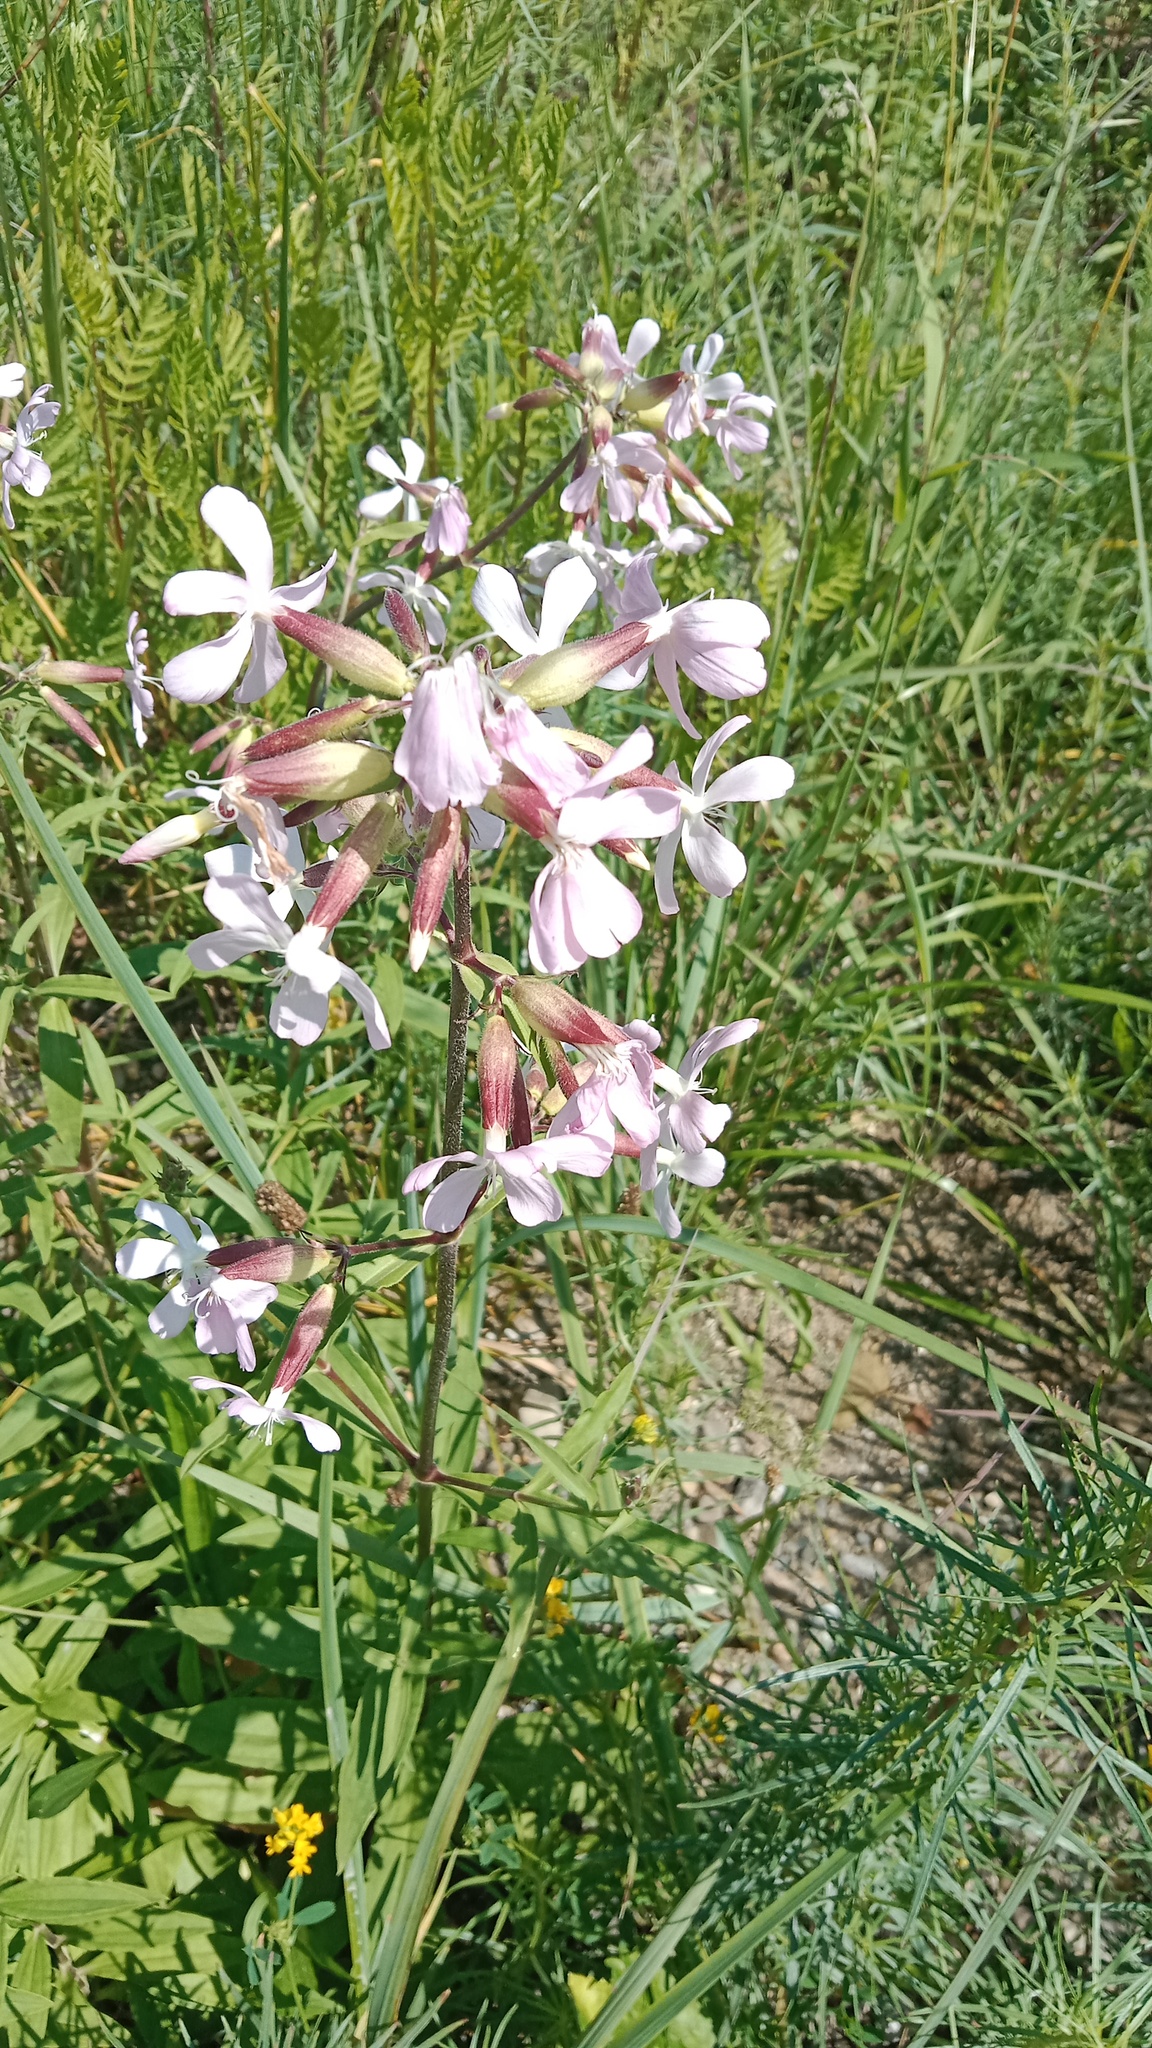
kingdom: Plantae
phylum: Tracheophyta
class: Magnoliopsida
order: Caryophyllales
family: Caryophyllaceae
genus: Saponaria
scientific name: Saponaria officinalis
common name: Soapwort
